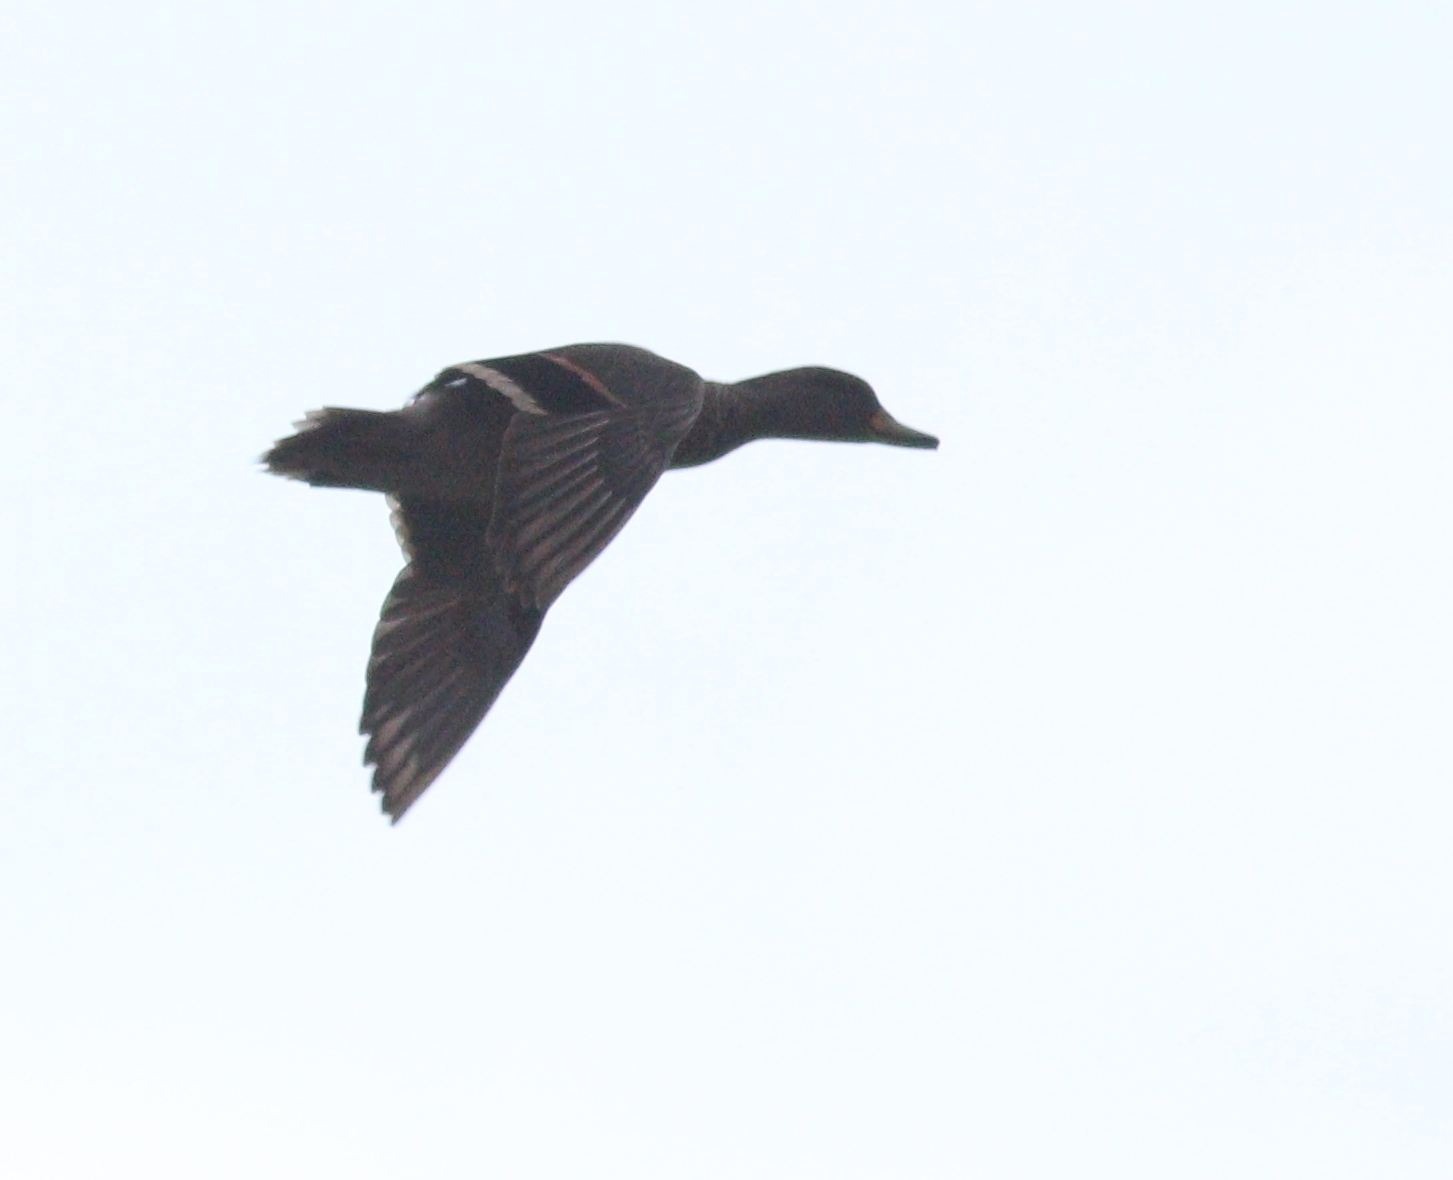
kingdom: Animalia
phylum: Chordata
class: Aves
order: Anseriformes
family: Anatidae
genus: Anas
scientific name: Anas flavirostris
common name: Yellow-billed teal
